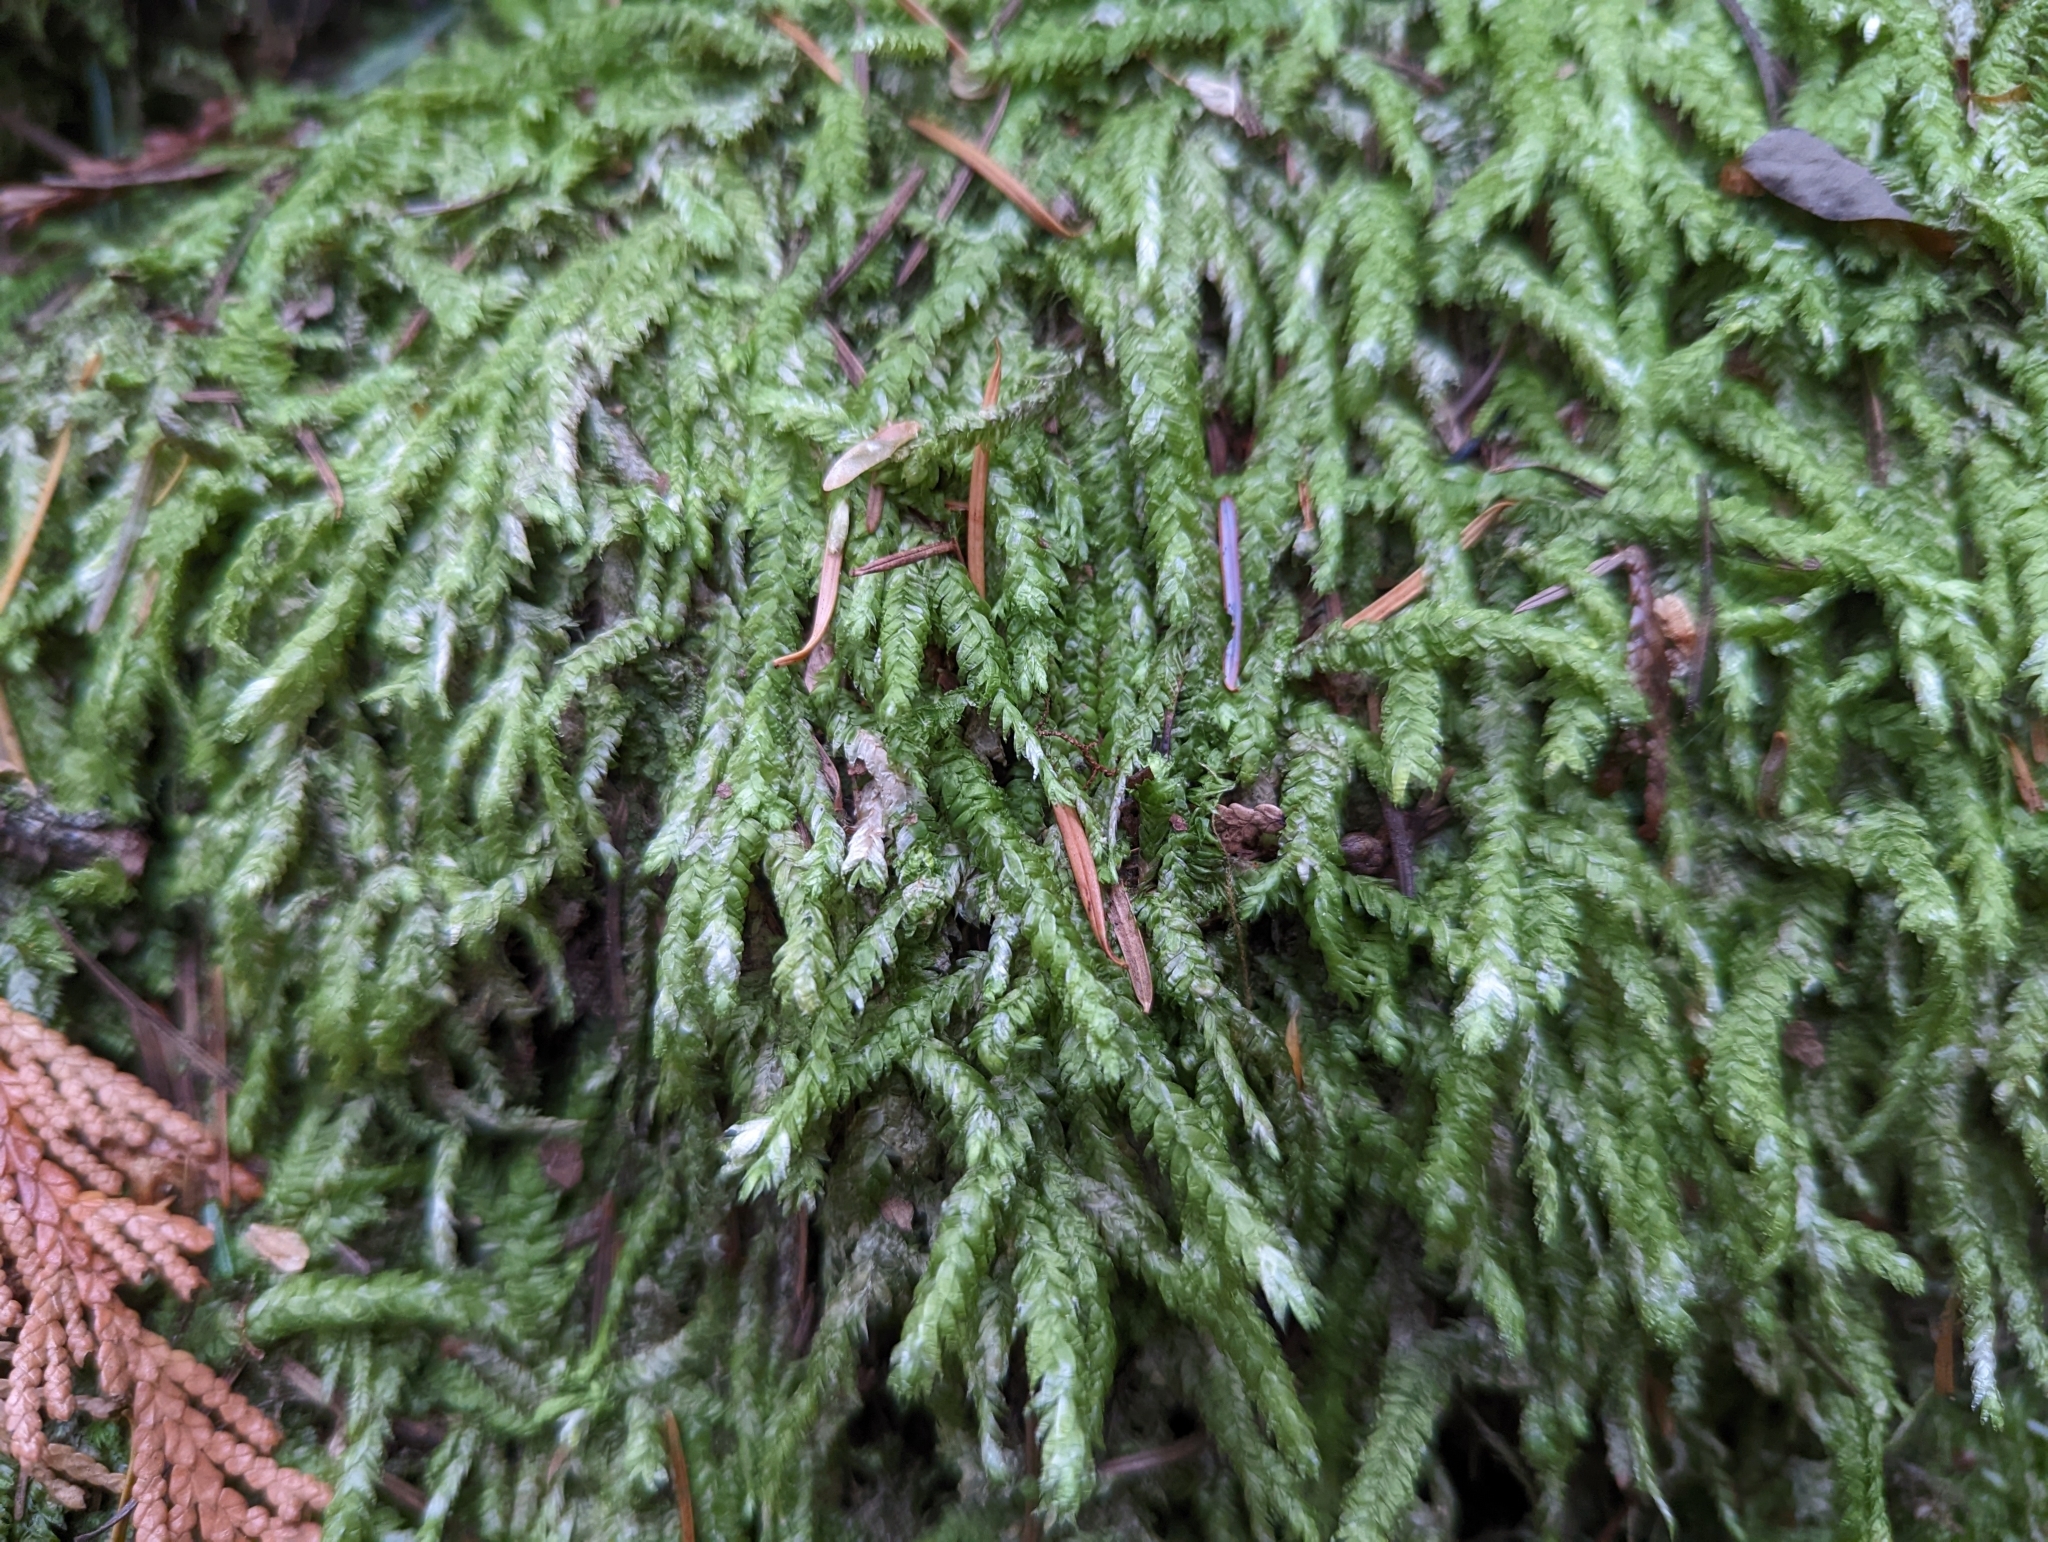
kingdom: Plantae
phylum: Bryophyta
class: Bryopsida
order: Hypnales
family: Plagiotheciaceae
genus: Plagiothecium
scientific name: Plagiothecium undulatum
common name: Waved silk-moss
